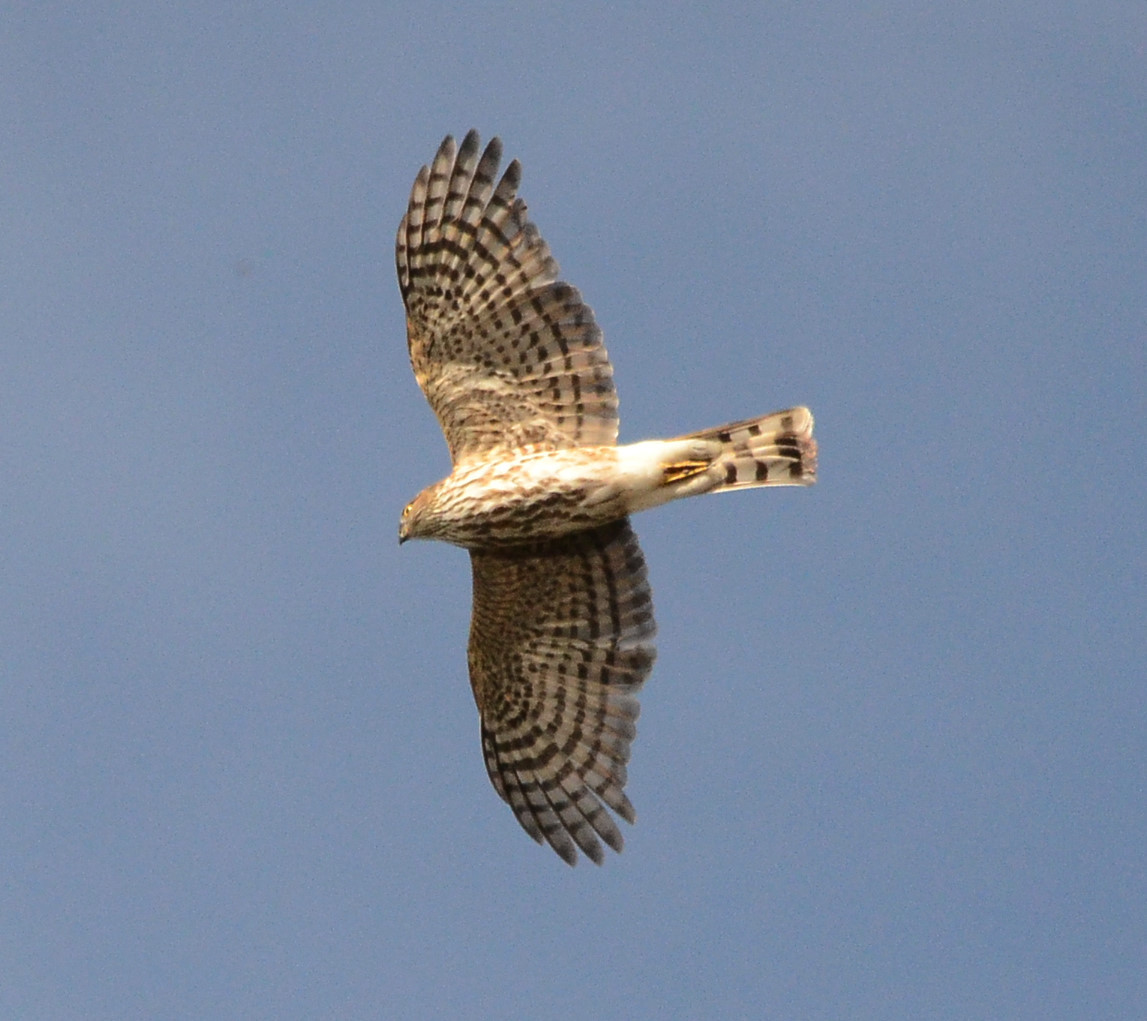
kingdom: Animalia
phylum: Chordata
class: Aves
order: Accipitriformes
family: Accipitridae
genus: Accipiter
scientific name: Accipiter striatus
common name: Sharp-shinned hawk
